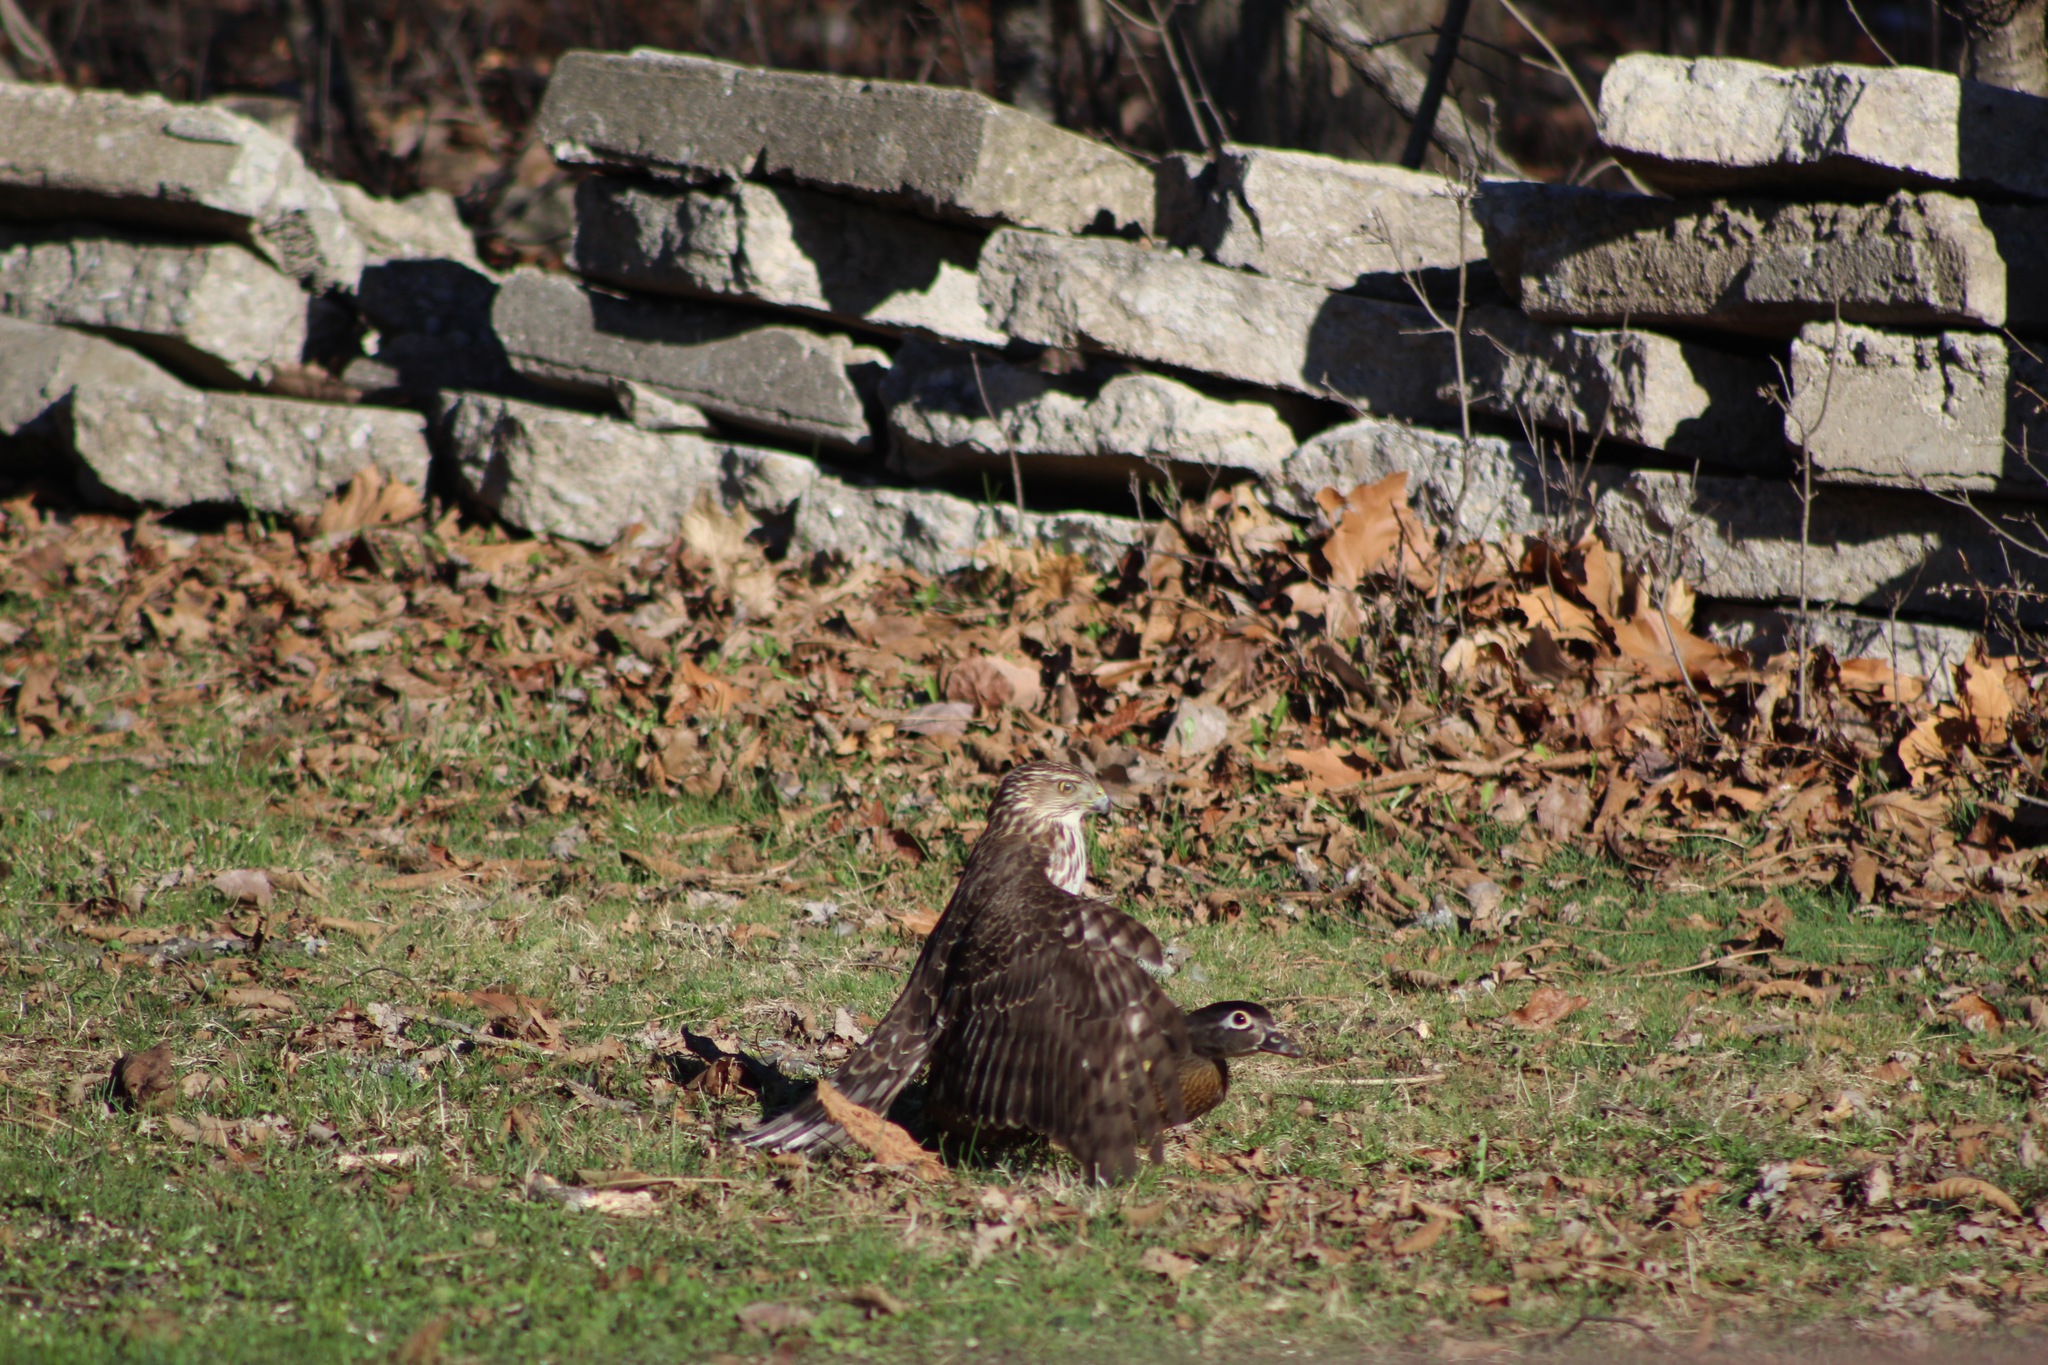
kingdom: Animalia
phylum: Chordata
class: Aves
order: Accipitriformes
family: Accipitridae
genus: Accipiter
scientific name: Accipiter cooperii
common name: Cooper's hawk
